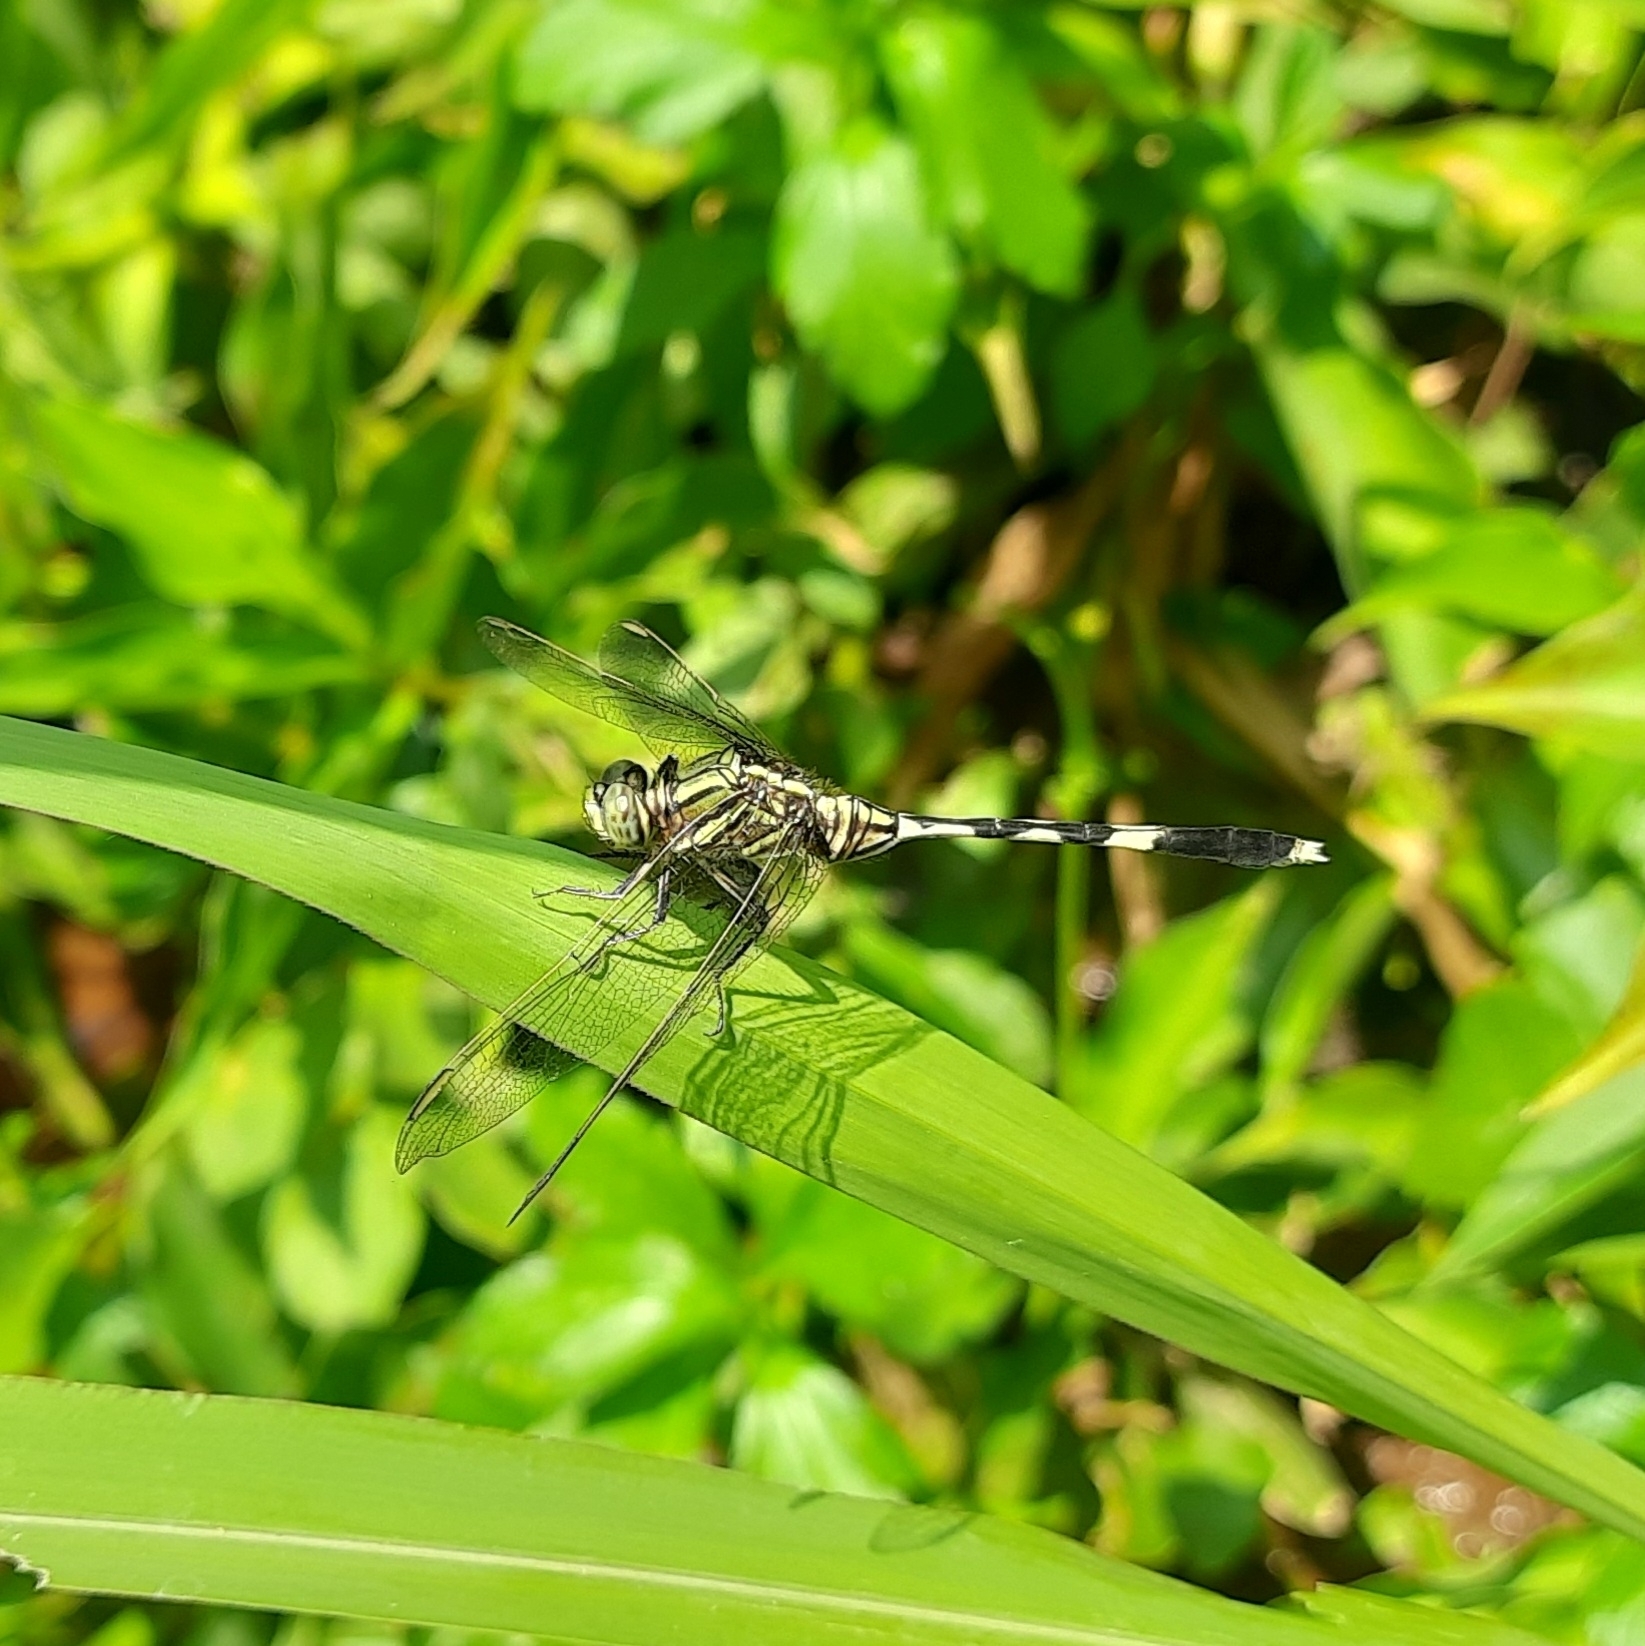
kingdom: Animalia
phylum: Arthropoda
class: Insecta
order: Odonata
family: Libellulidae
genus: Orthetrum
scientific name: Orthetrum sabina
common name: Slender skimmer
